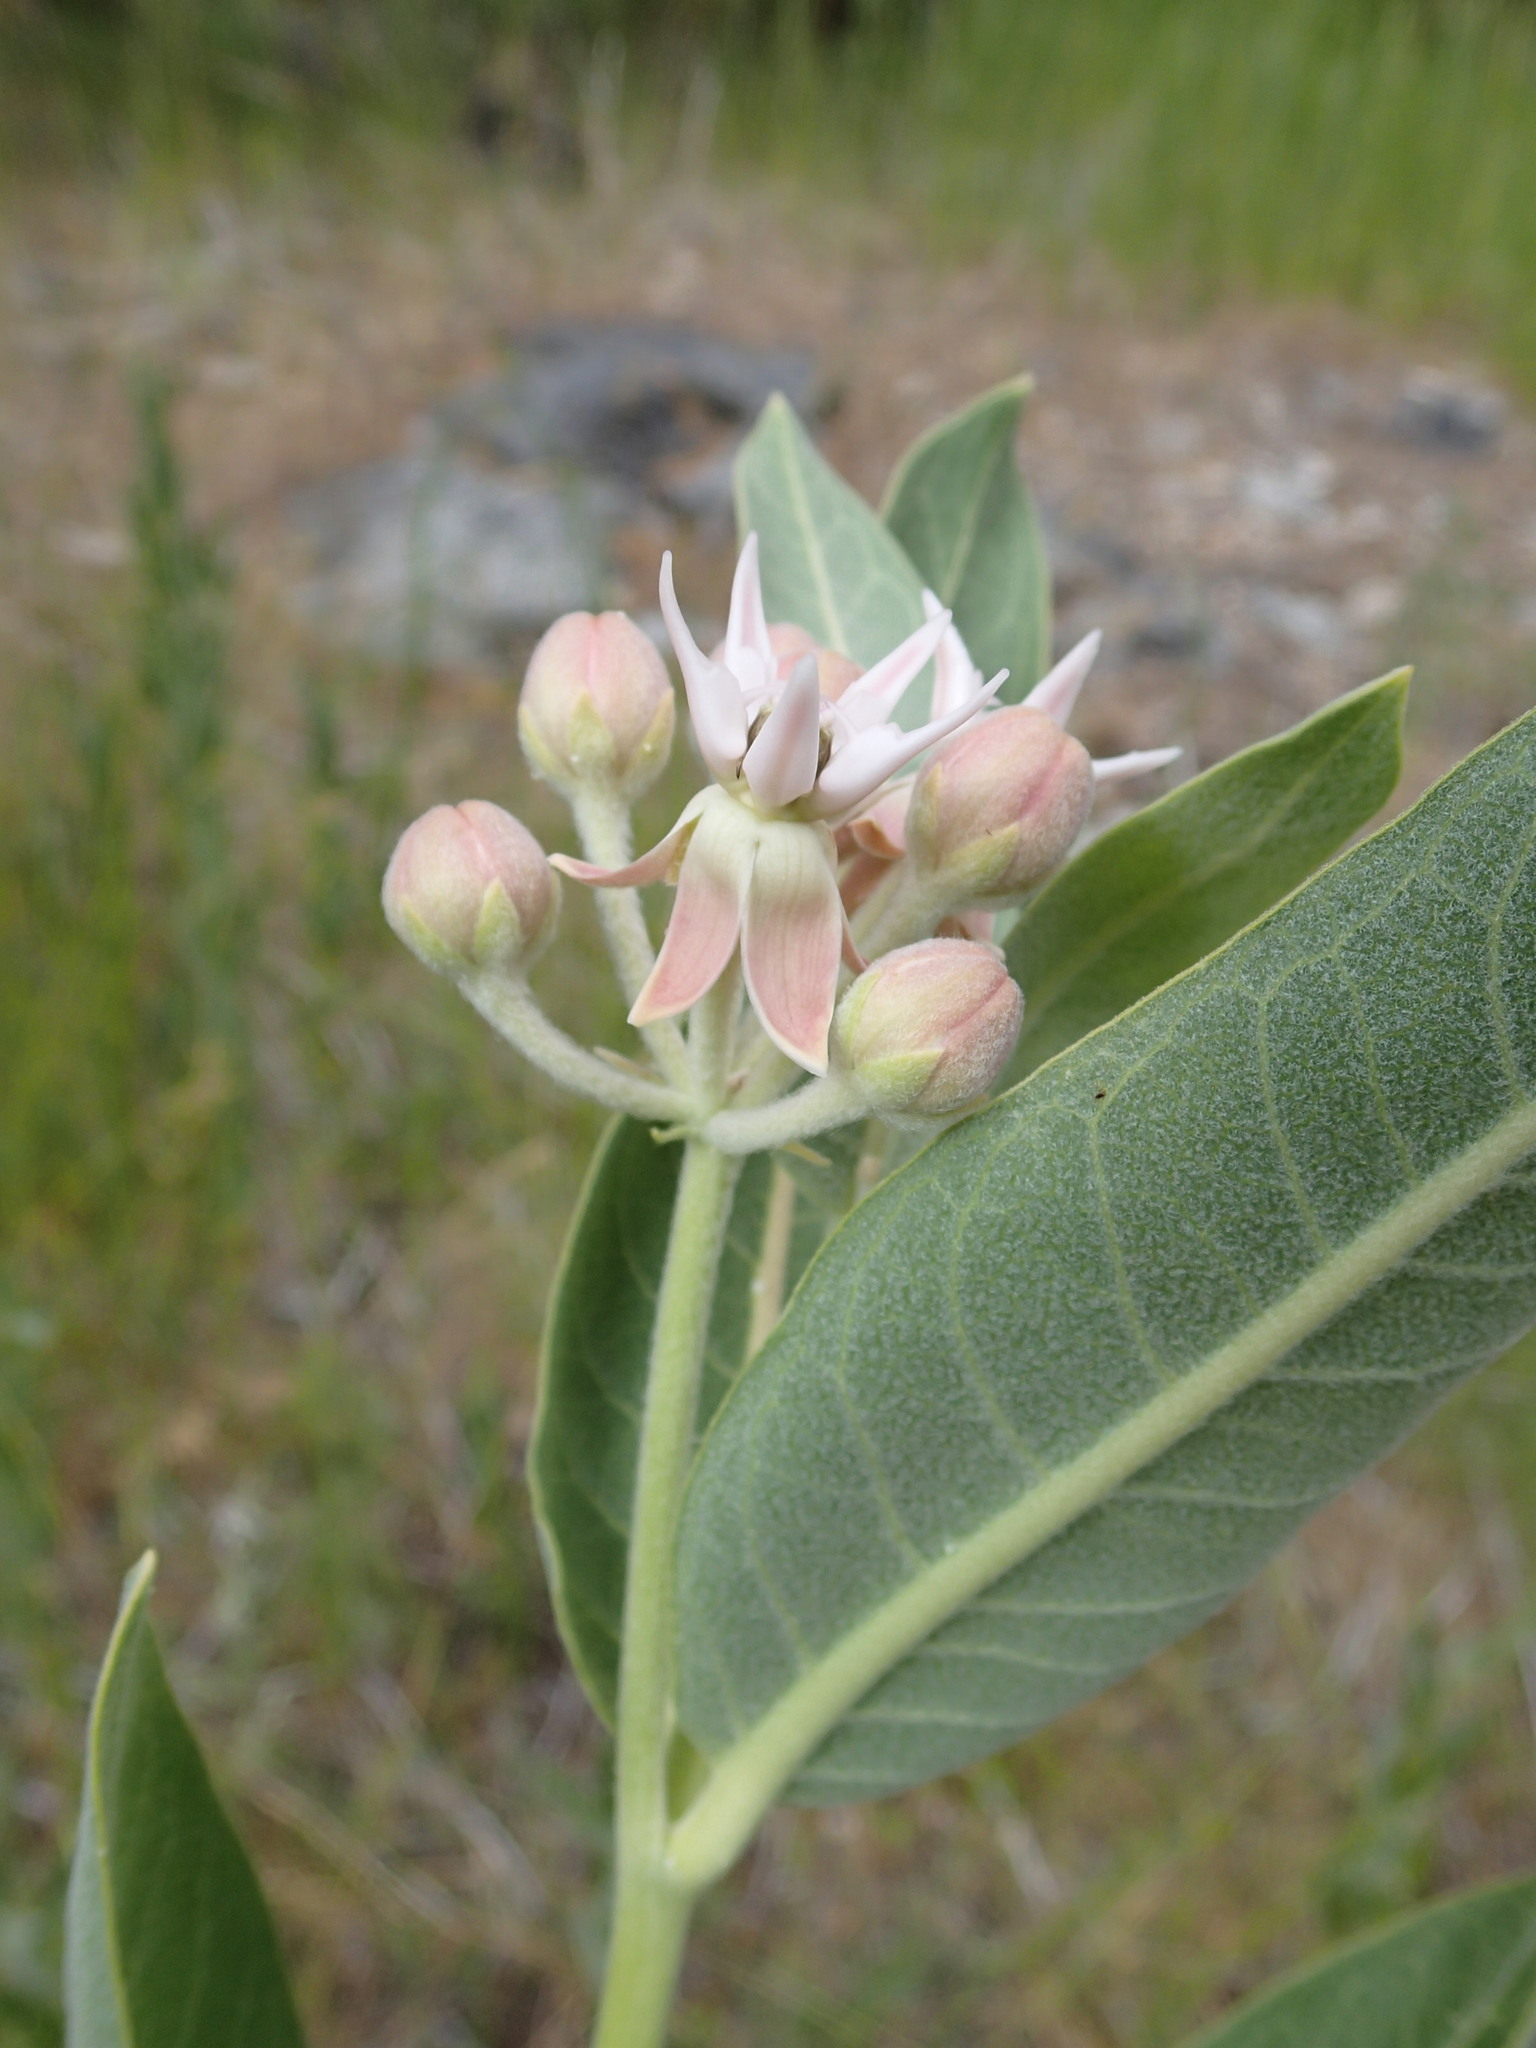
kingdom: Plantae
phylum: Tracheophyta
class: Magnoliopsida
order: Gentianales
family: Apocynaceae
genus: Asclepias
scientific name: Asclepias speciosa
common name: Showy milkweed
